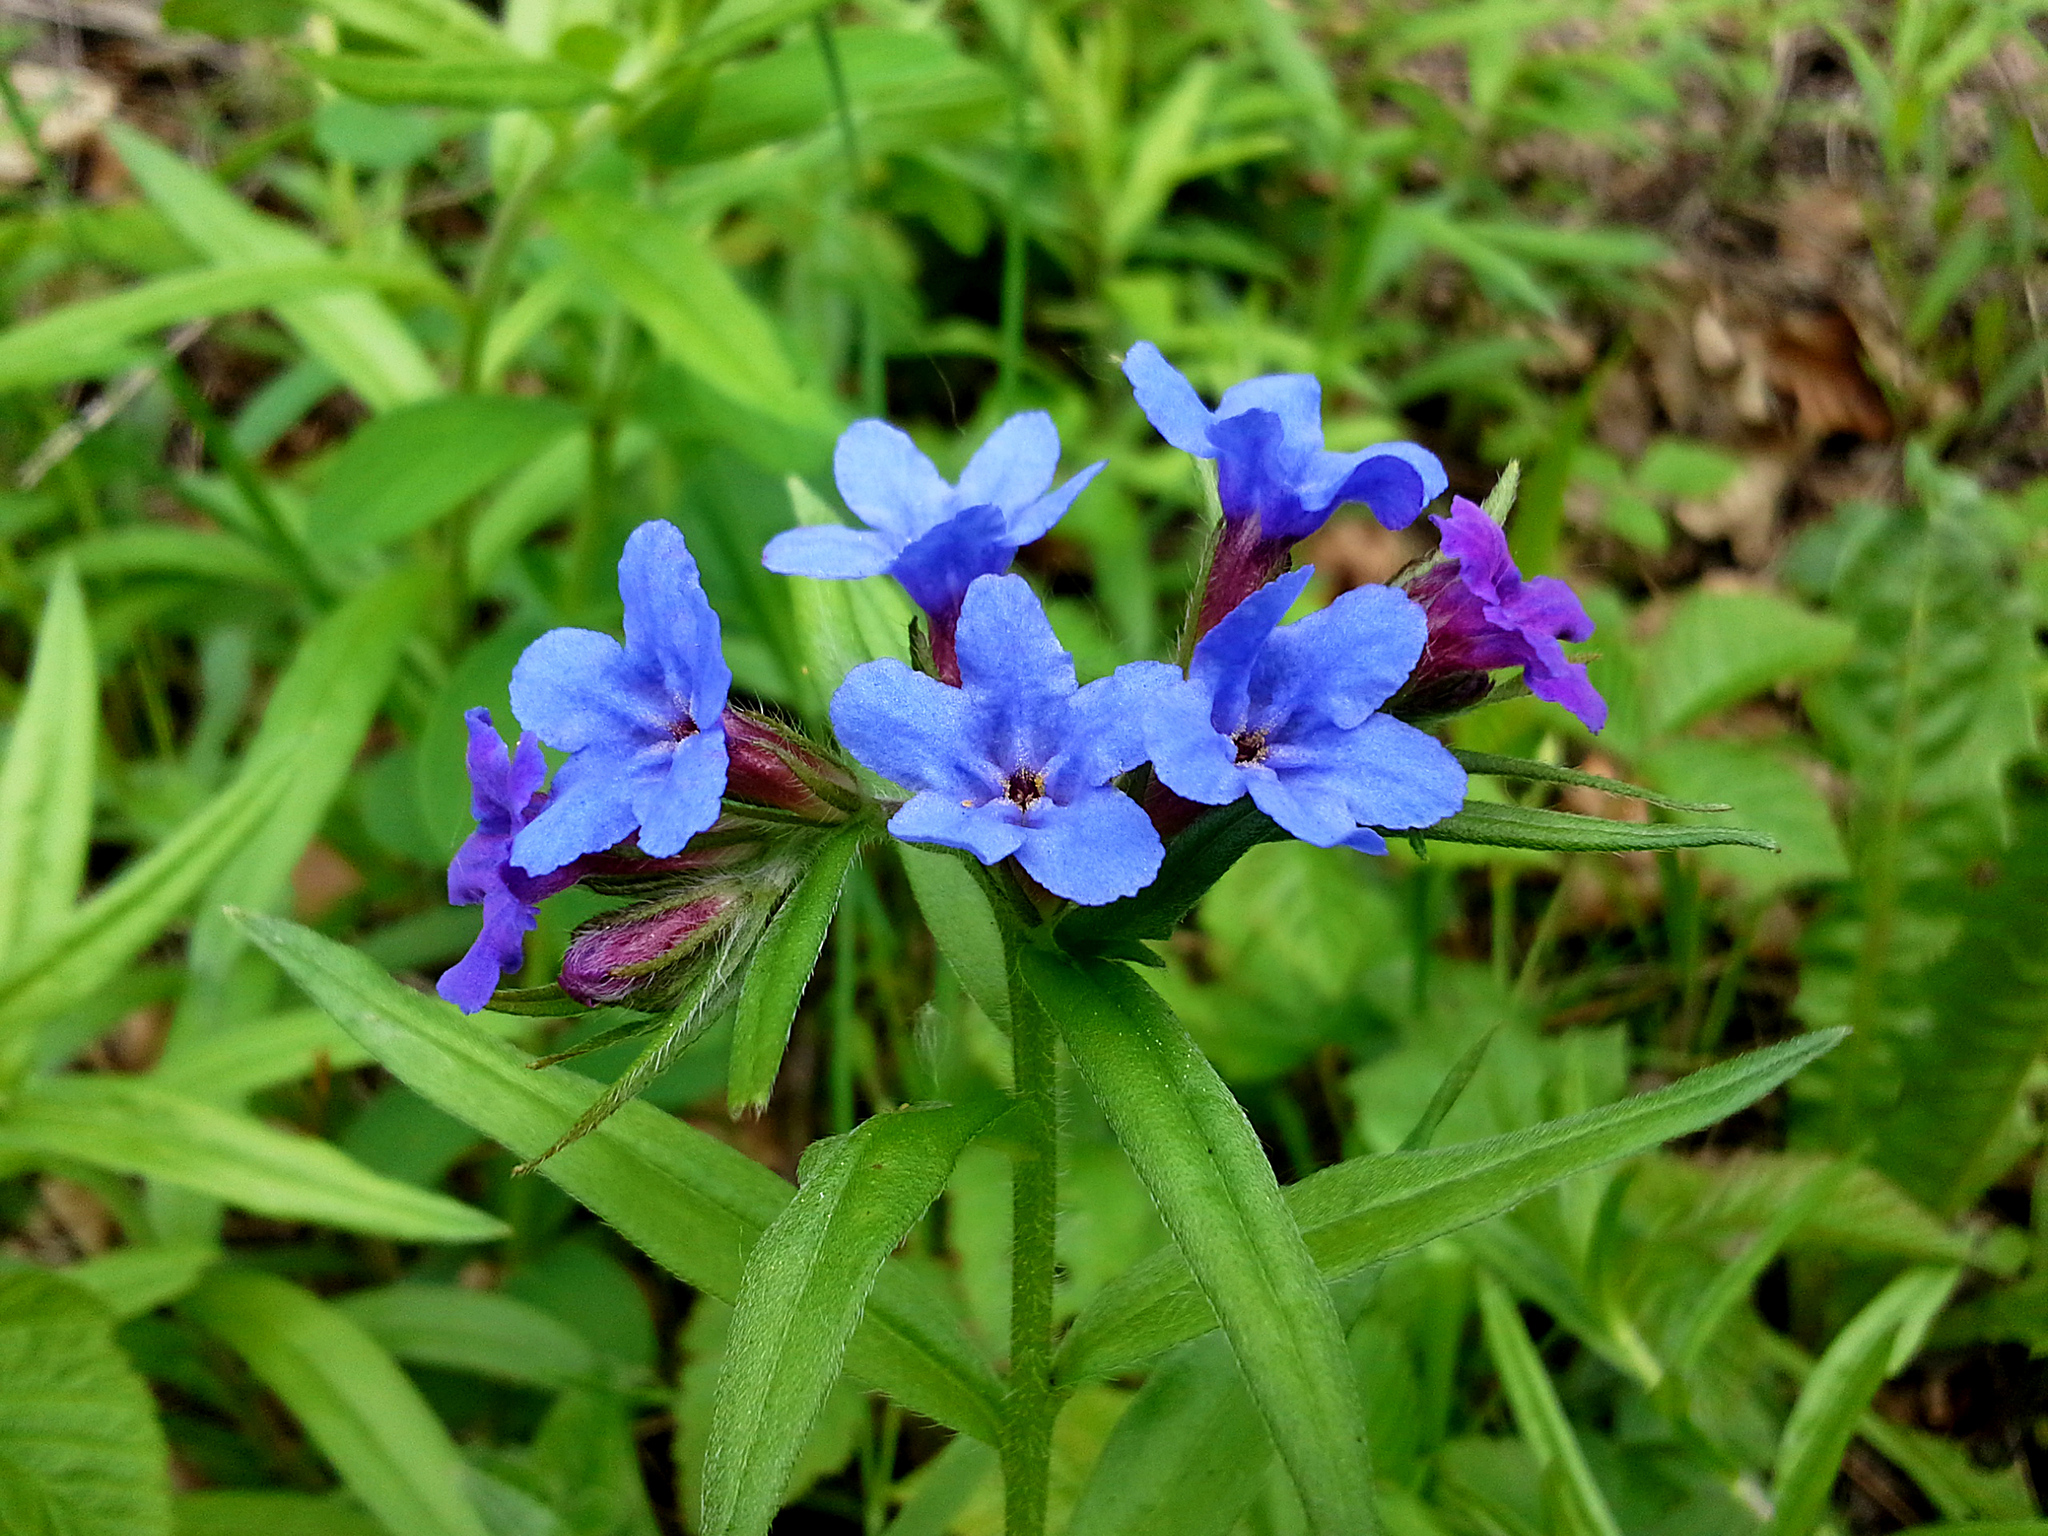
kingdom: Plantae
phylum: Tracheophyta
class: Magnoliopsida
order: Boraginales
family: Boraginaceae
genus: Aegonychon
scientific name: Aegonychon purpurocaeruleum
